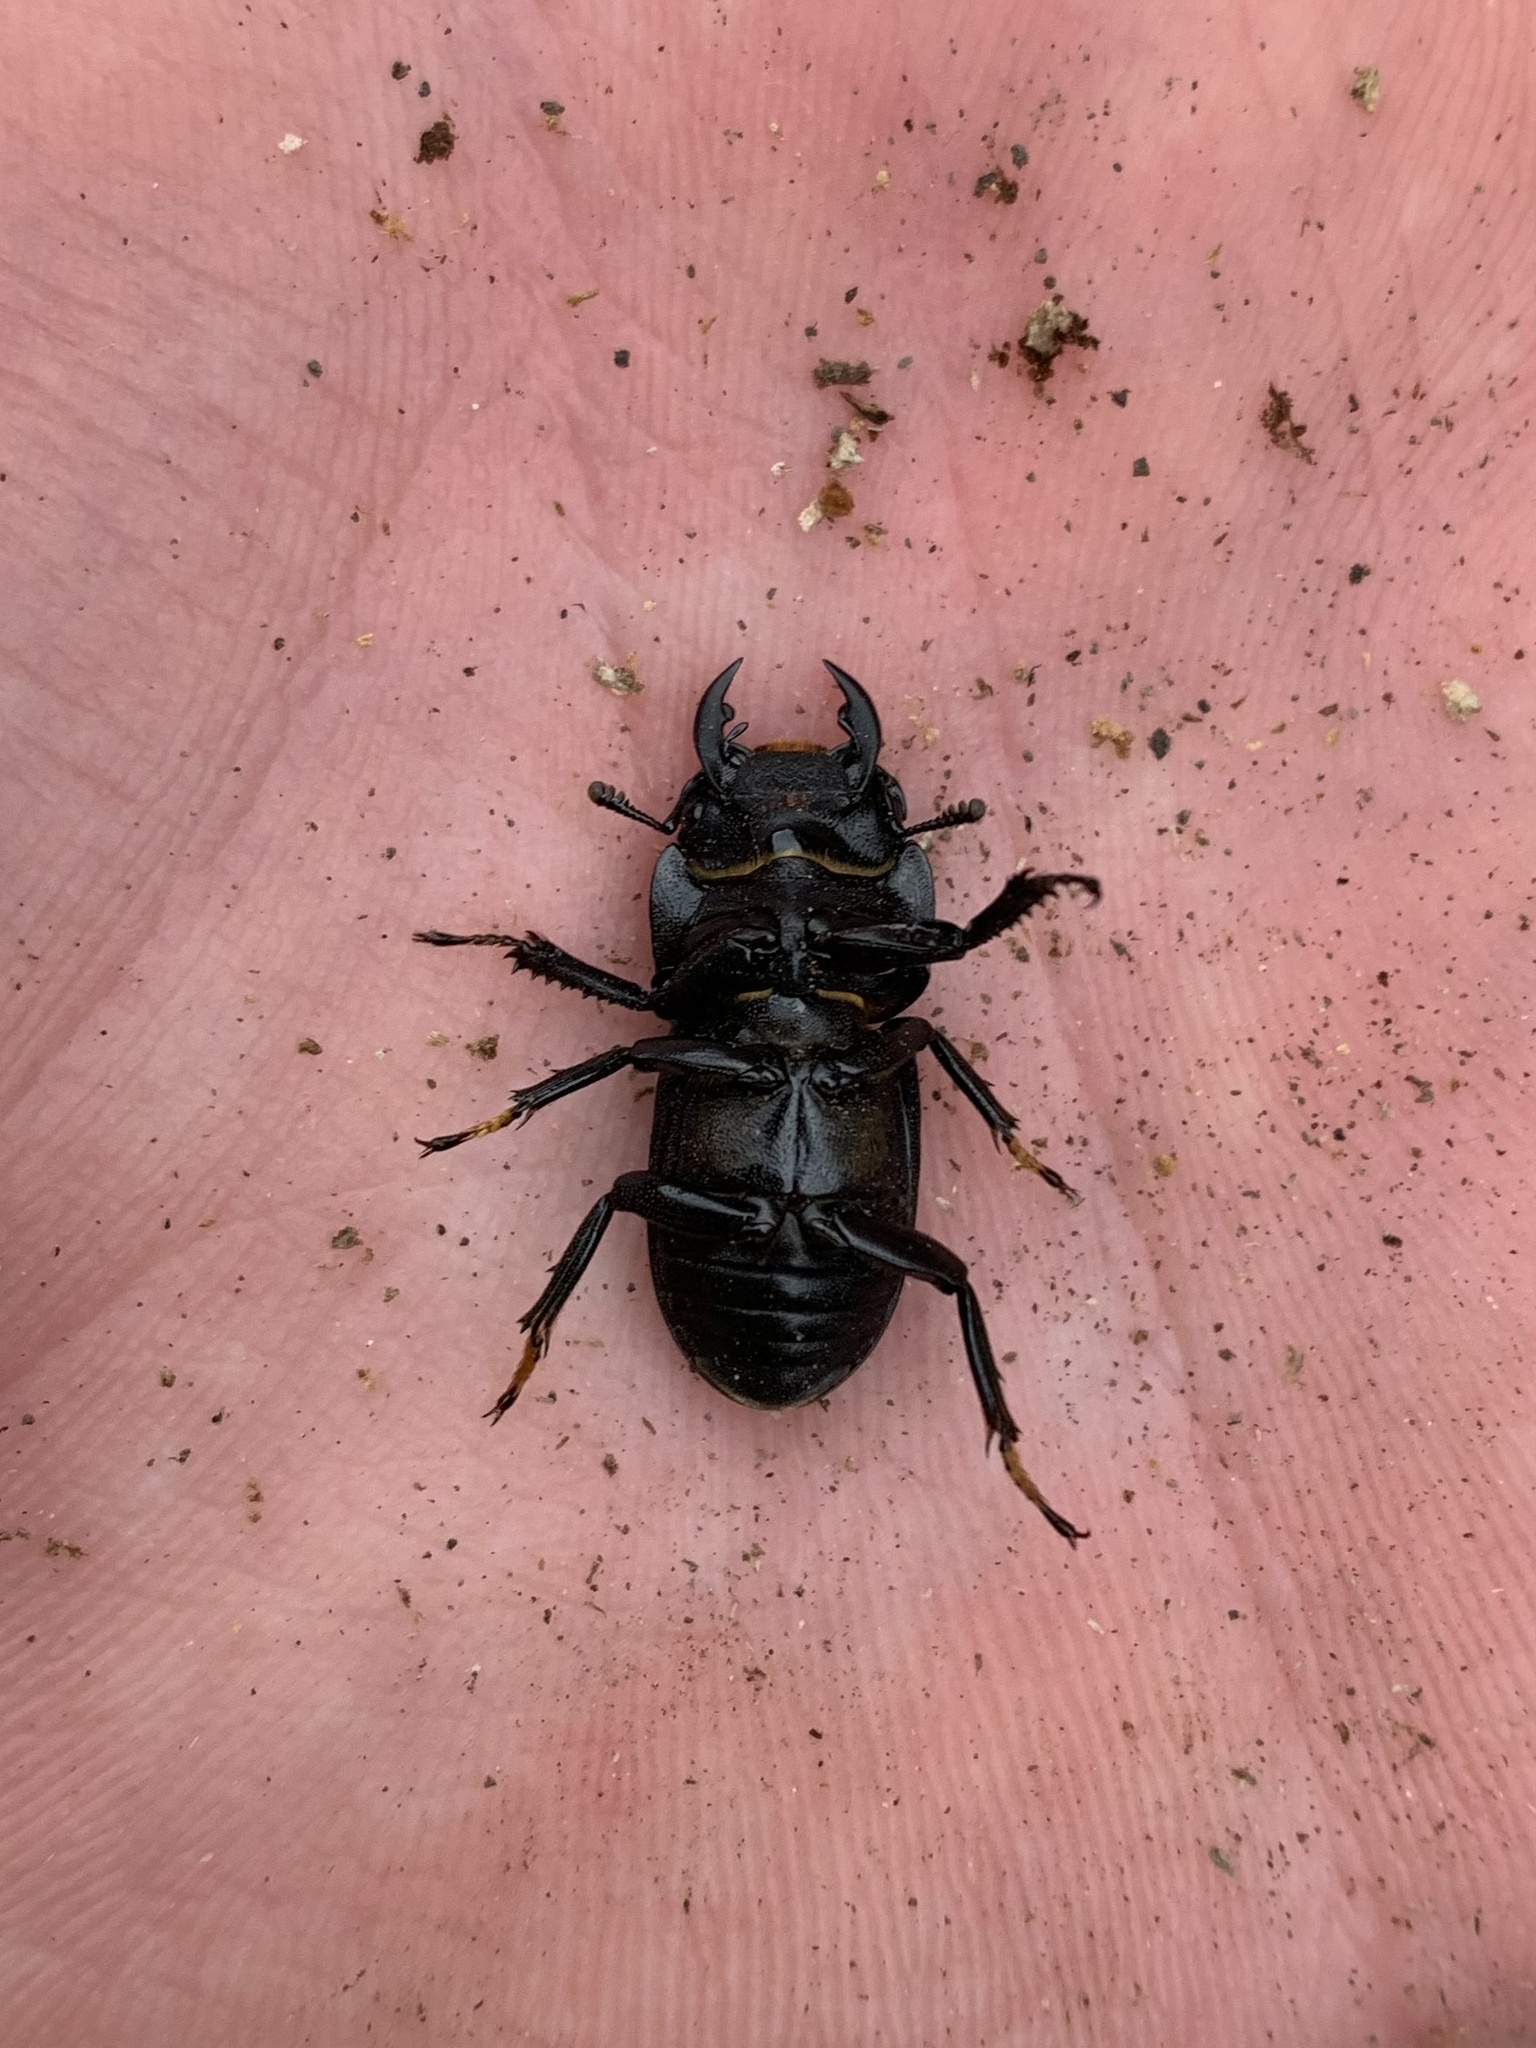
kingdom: Animalia
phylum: Arthropoda
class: Insecta
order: Coleoptera
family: Lucanidae
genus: Dorcus
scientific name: Dorcus parallelipipedus
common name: Lesser stag beetle
